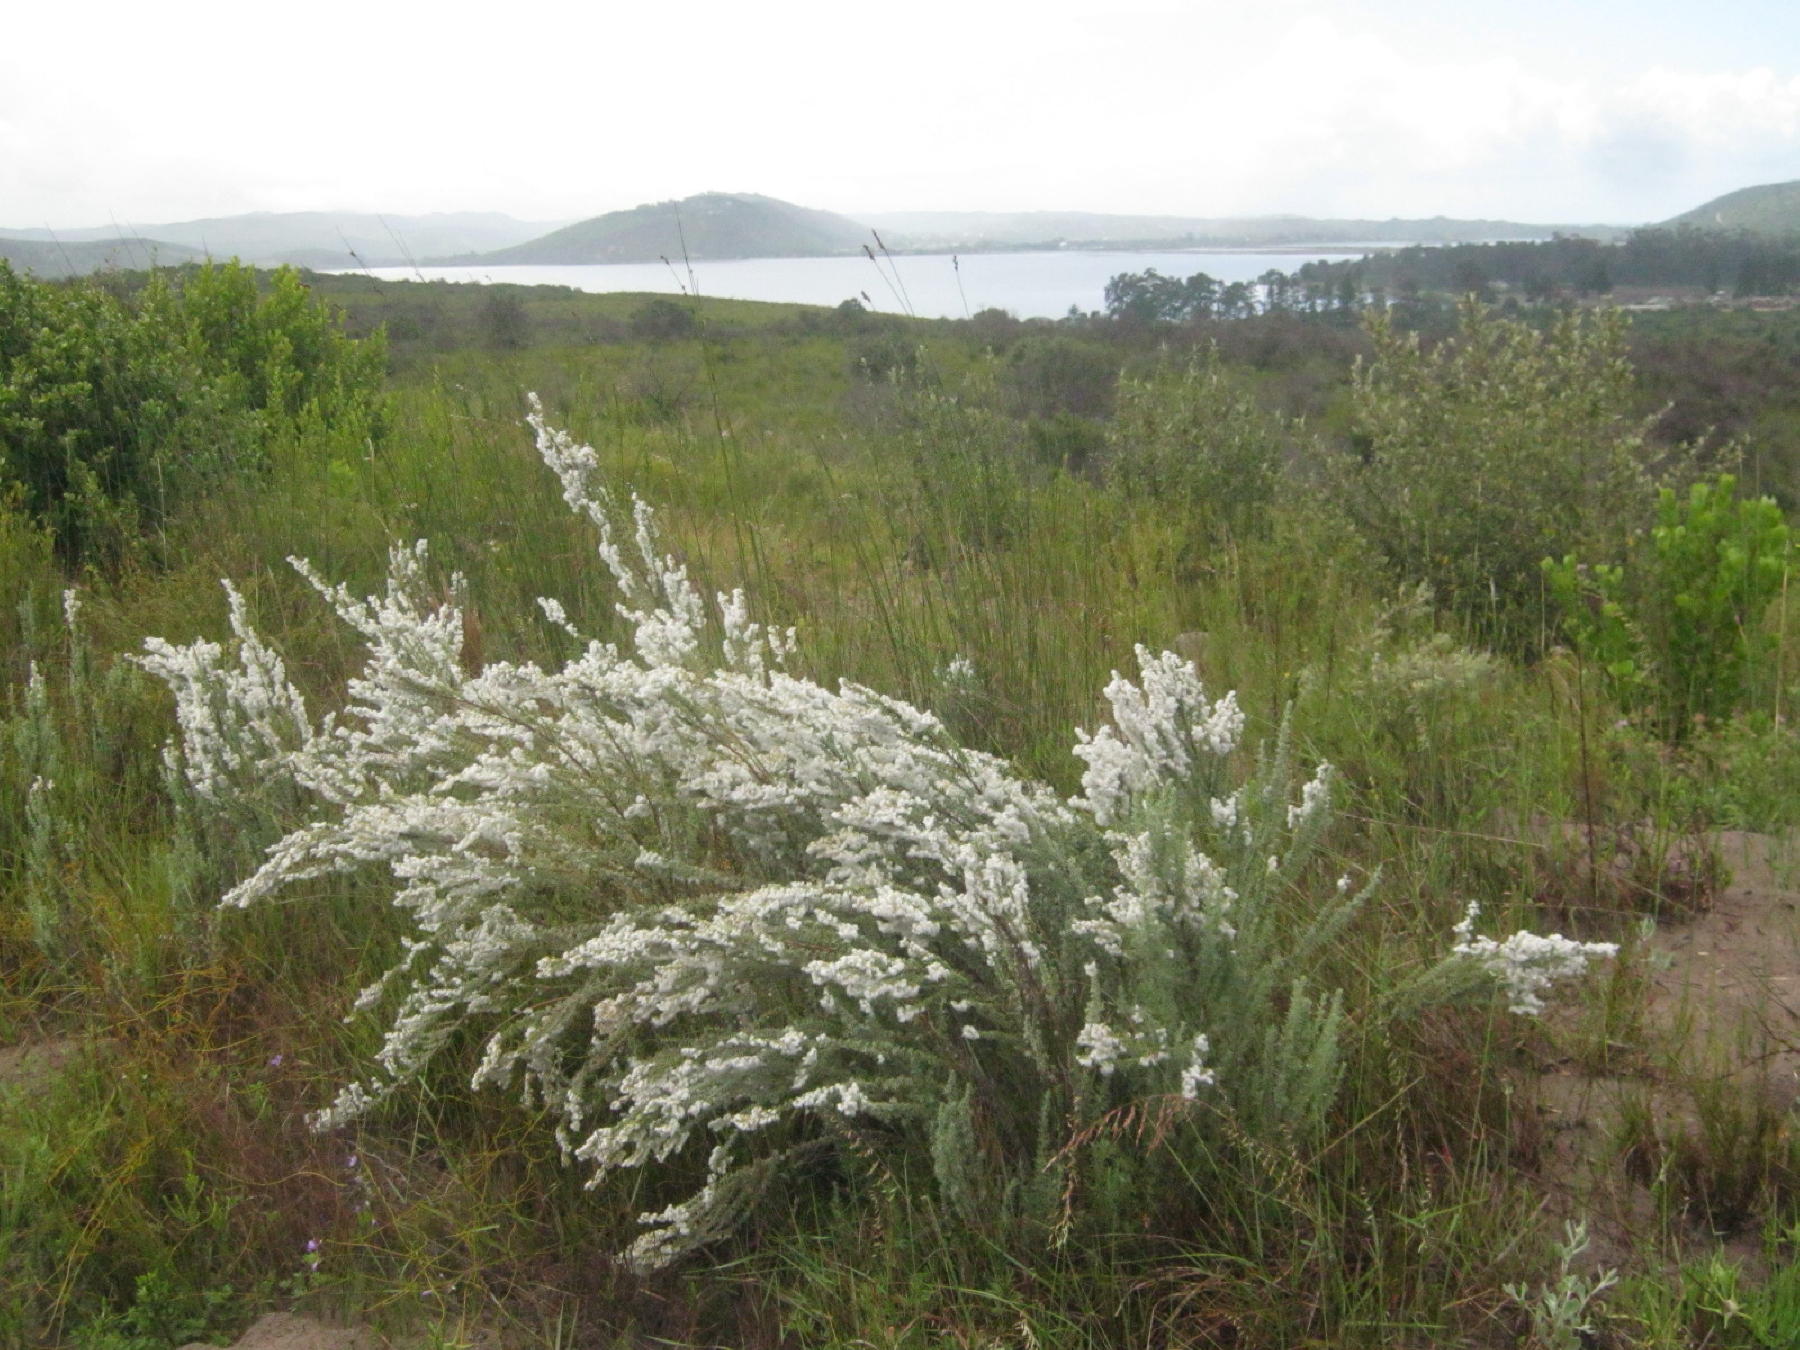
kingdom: Plantae
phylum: Tracheophyta
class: Magnoliopsida
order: Asterales
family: Asteraceae
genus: Eriocephalus
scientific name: Eriocephalus racemosus
